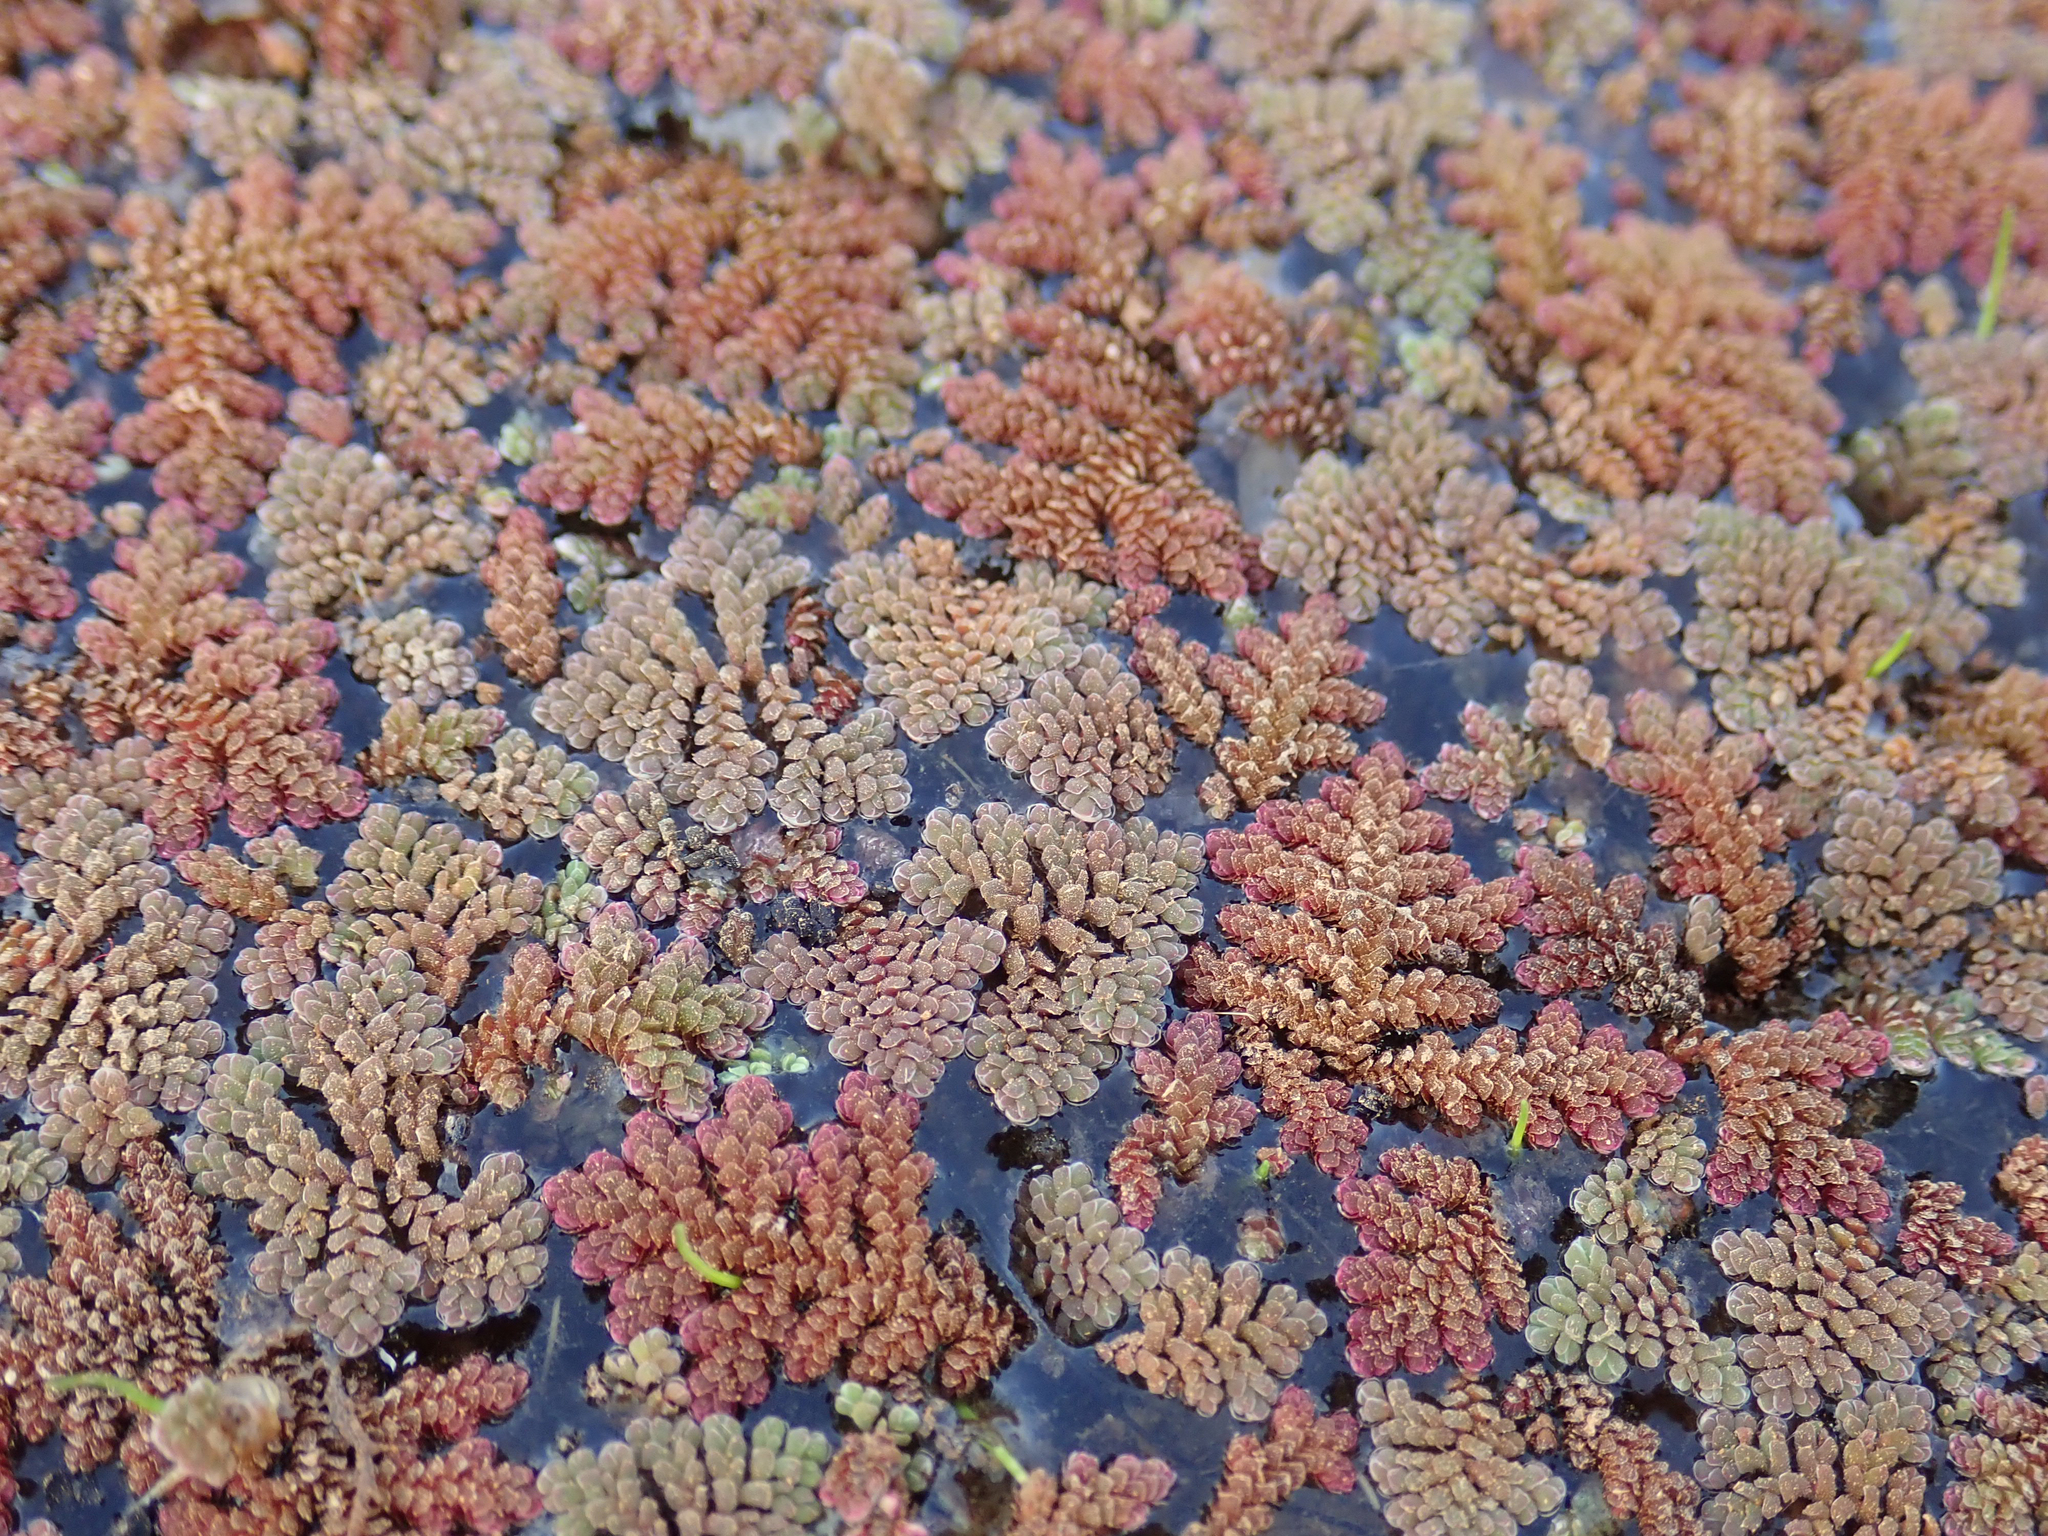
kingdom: Plantae
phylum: Tracheophyta
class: Polypodiopsida
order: Salviniales
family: Salviniaceae
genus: Azolla
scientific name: Azolla pinnata
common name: Ferny azolla
